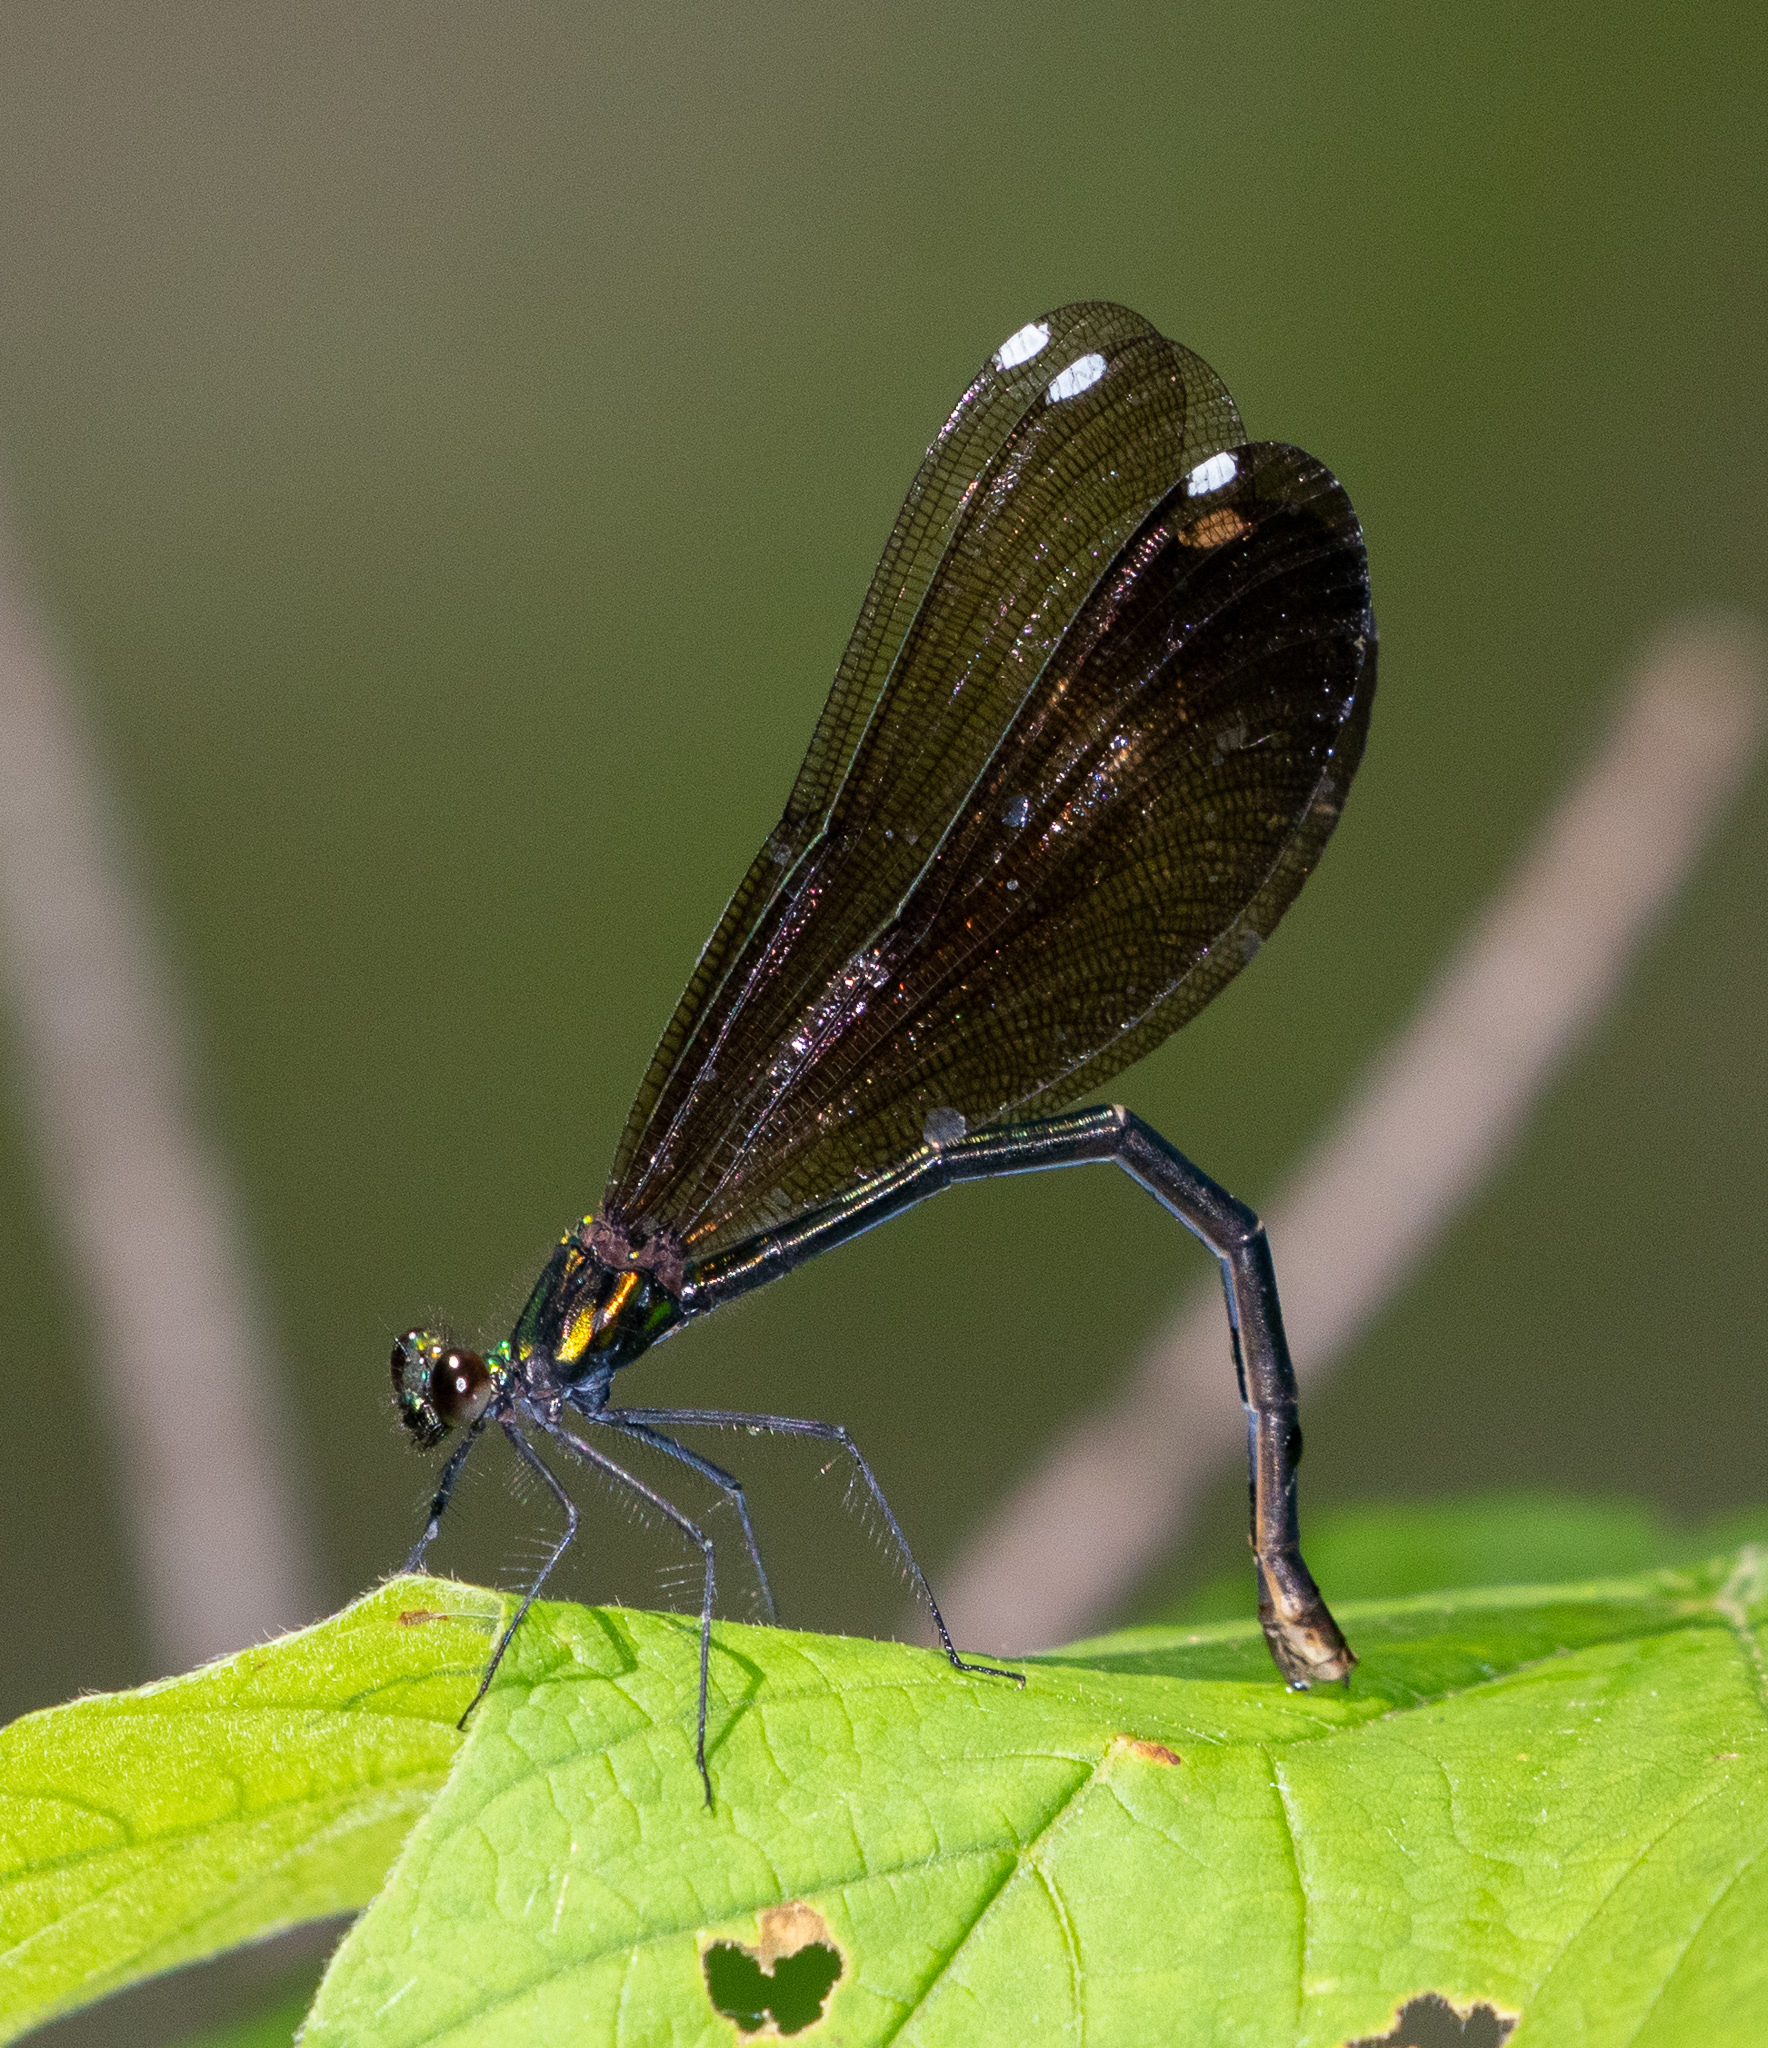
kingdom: Animalia
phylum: Arthropoda
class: Insecta
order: Odonata
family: Calopterygidae
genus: Calopteryx
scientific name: Calopteryx maculata
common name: Ebony jewelwing
